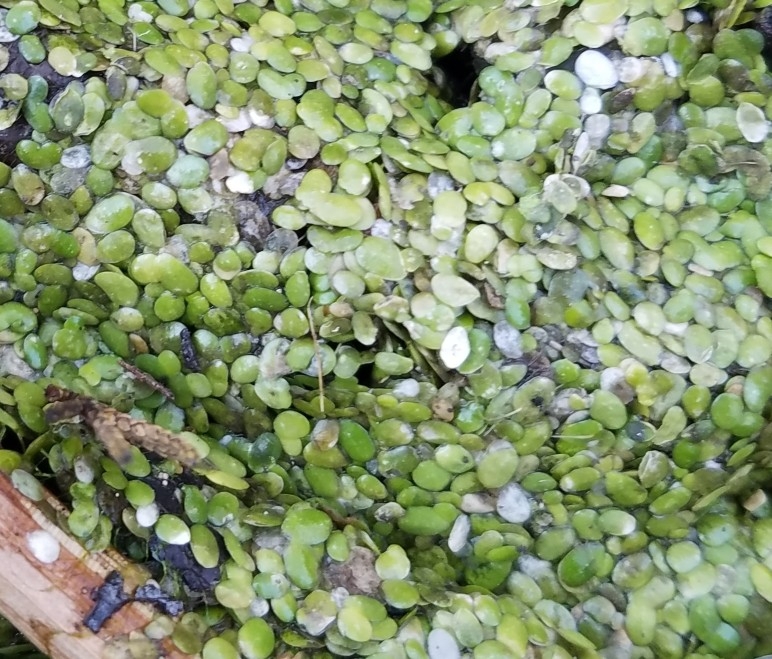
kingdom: Plantae
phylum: Tracheophyta
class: Liliopsida
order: Alismatales
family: Araceae
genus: Lemna
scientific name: Lemna
